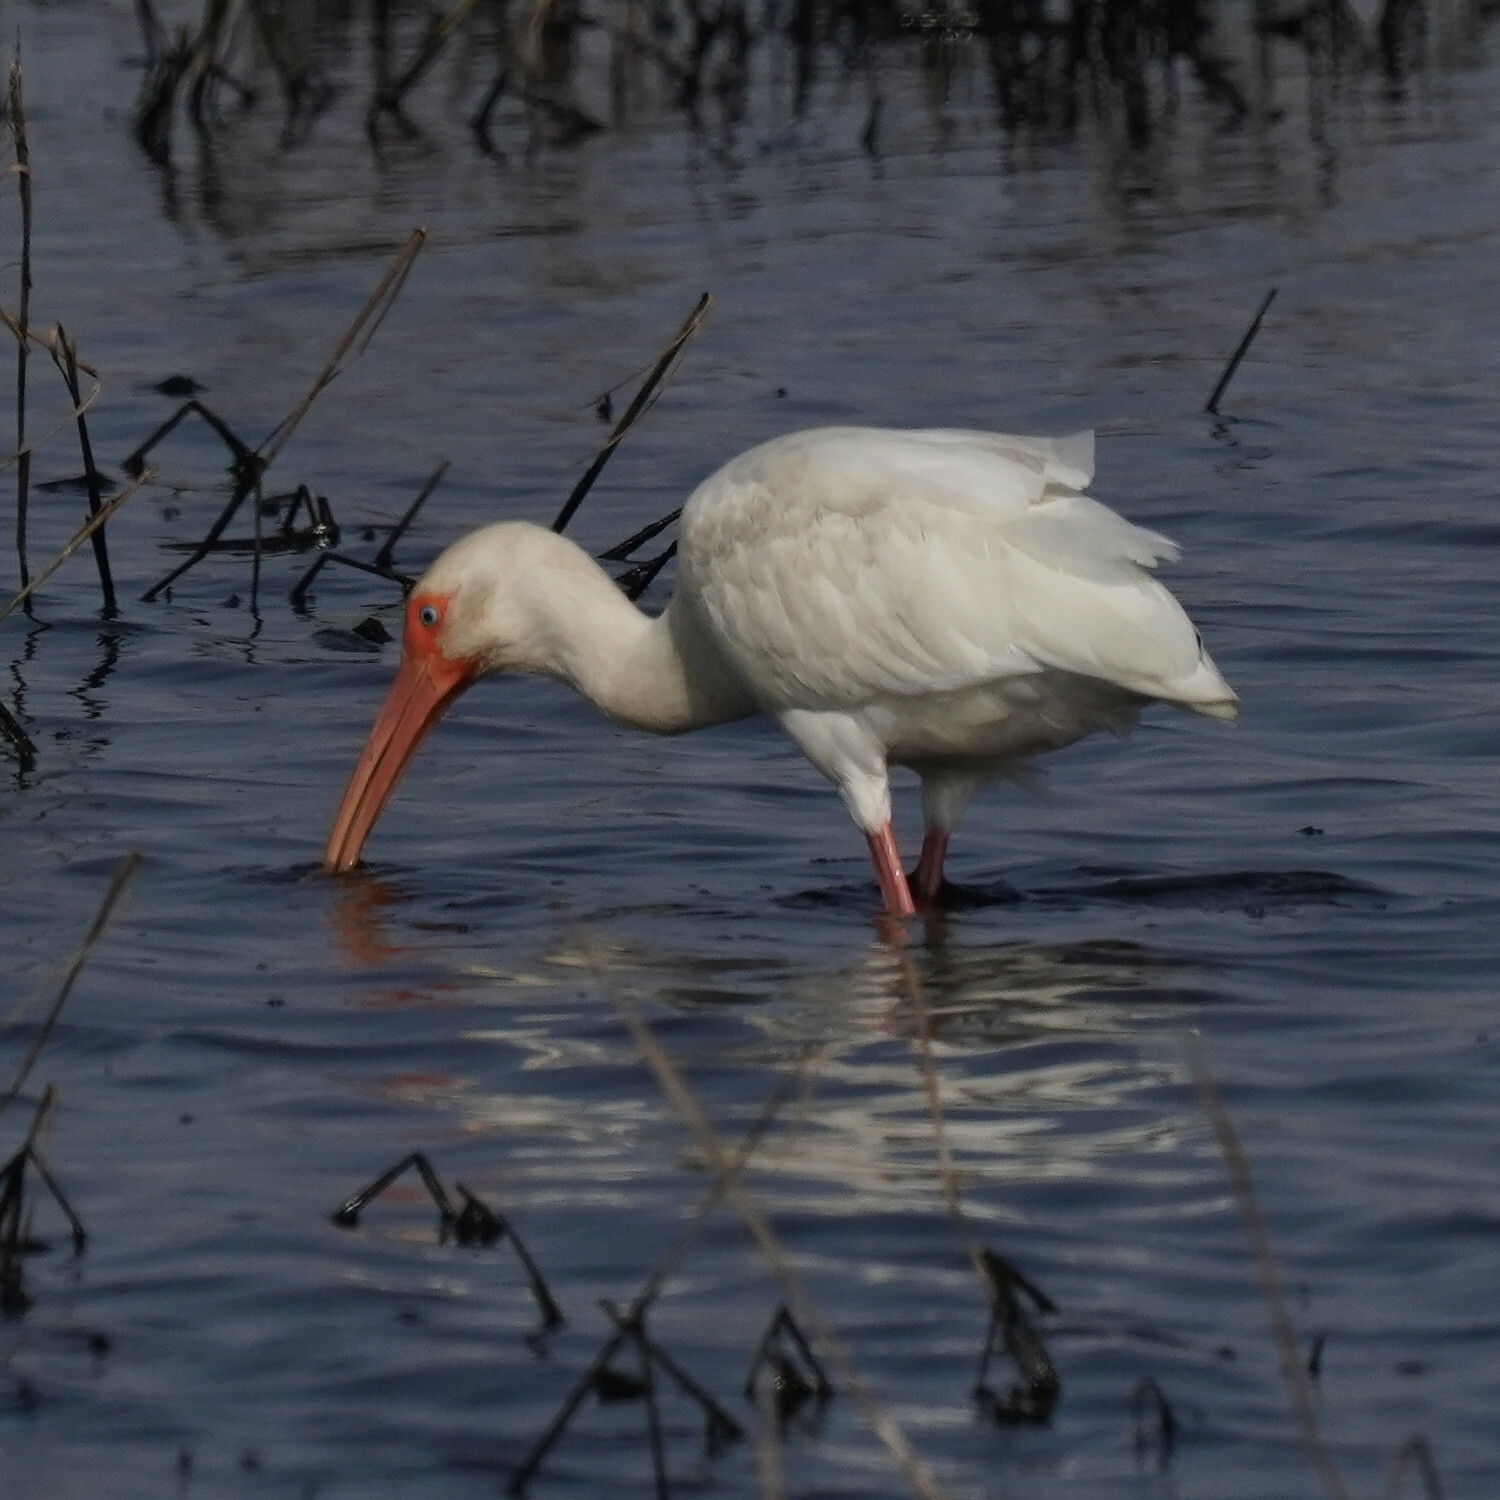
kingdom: Animalia
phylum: Chordata
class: Aves
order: Pelecaniformes
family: Threskiornithidae
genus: Eudocimus
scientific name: Eudocimus albus
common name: White ibis
